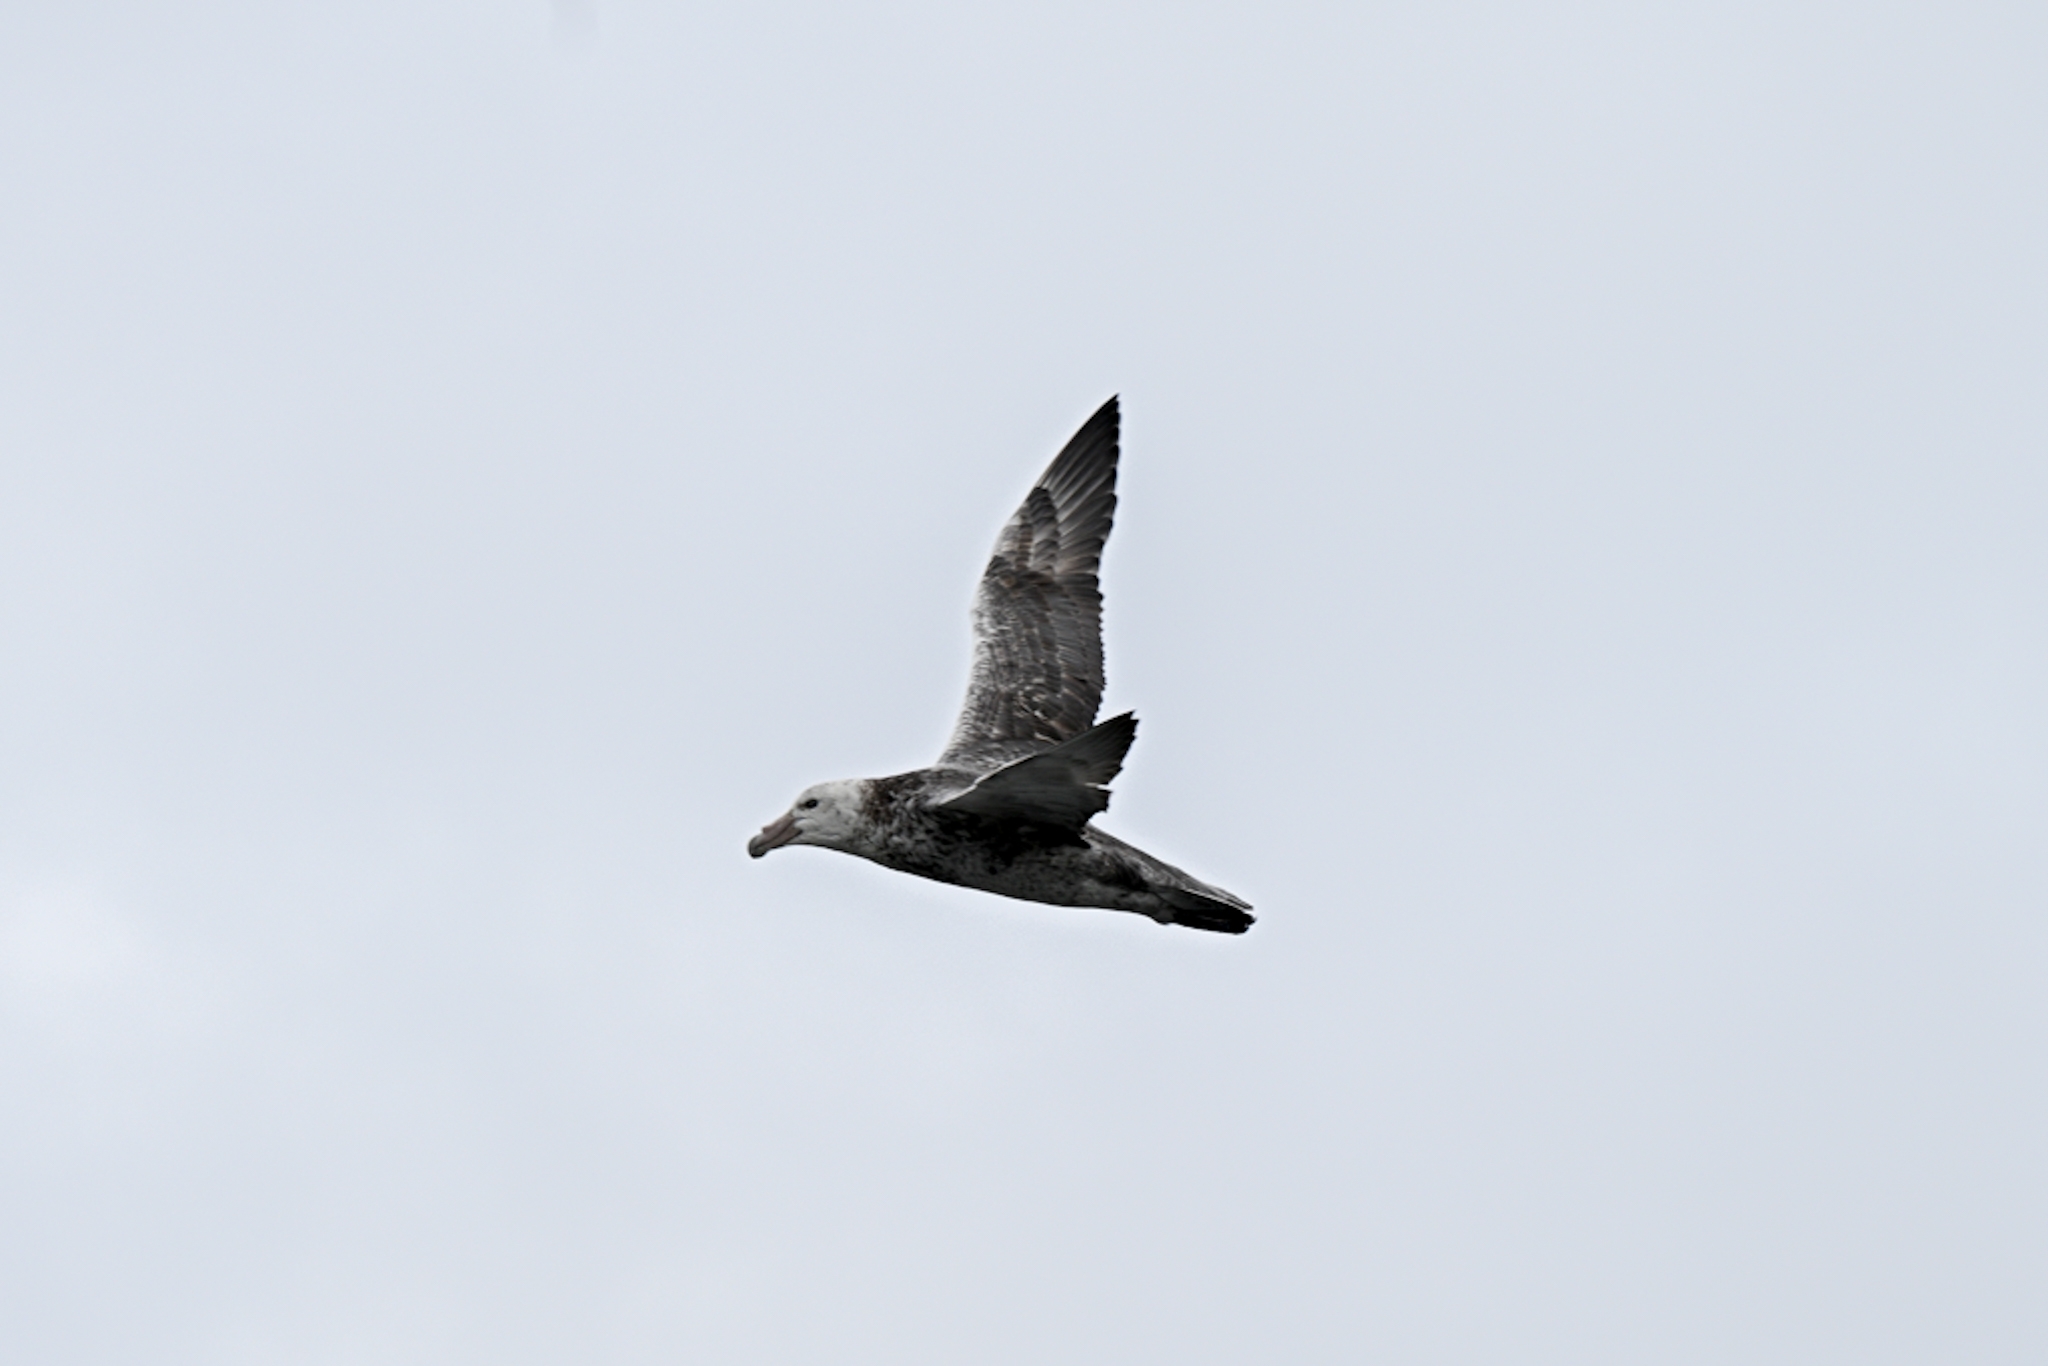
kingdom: Animalia
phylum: Chordata
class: Aves
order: Procellariiformes
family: Procellariidae
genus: Macronectes
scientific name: Macronectes giganteus
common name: Southern giant petrel
